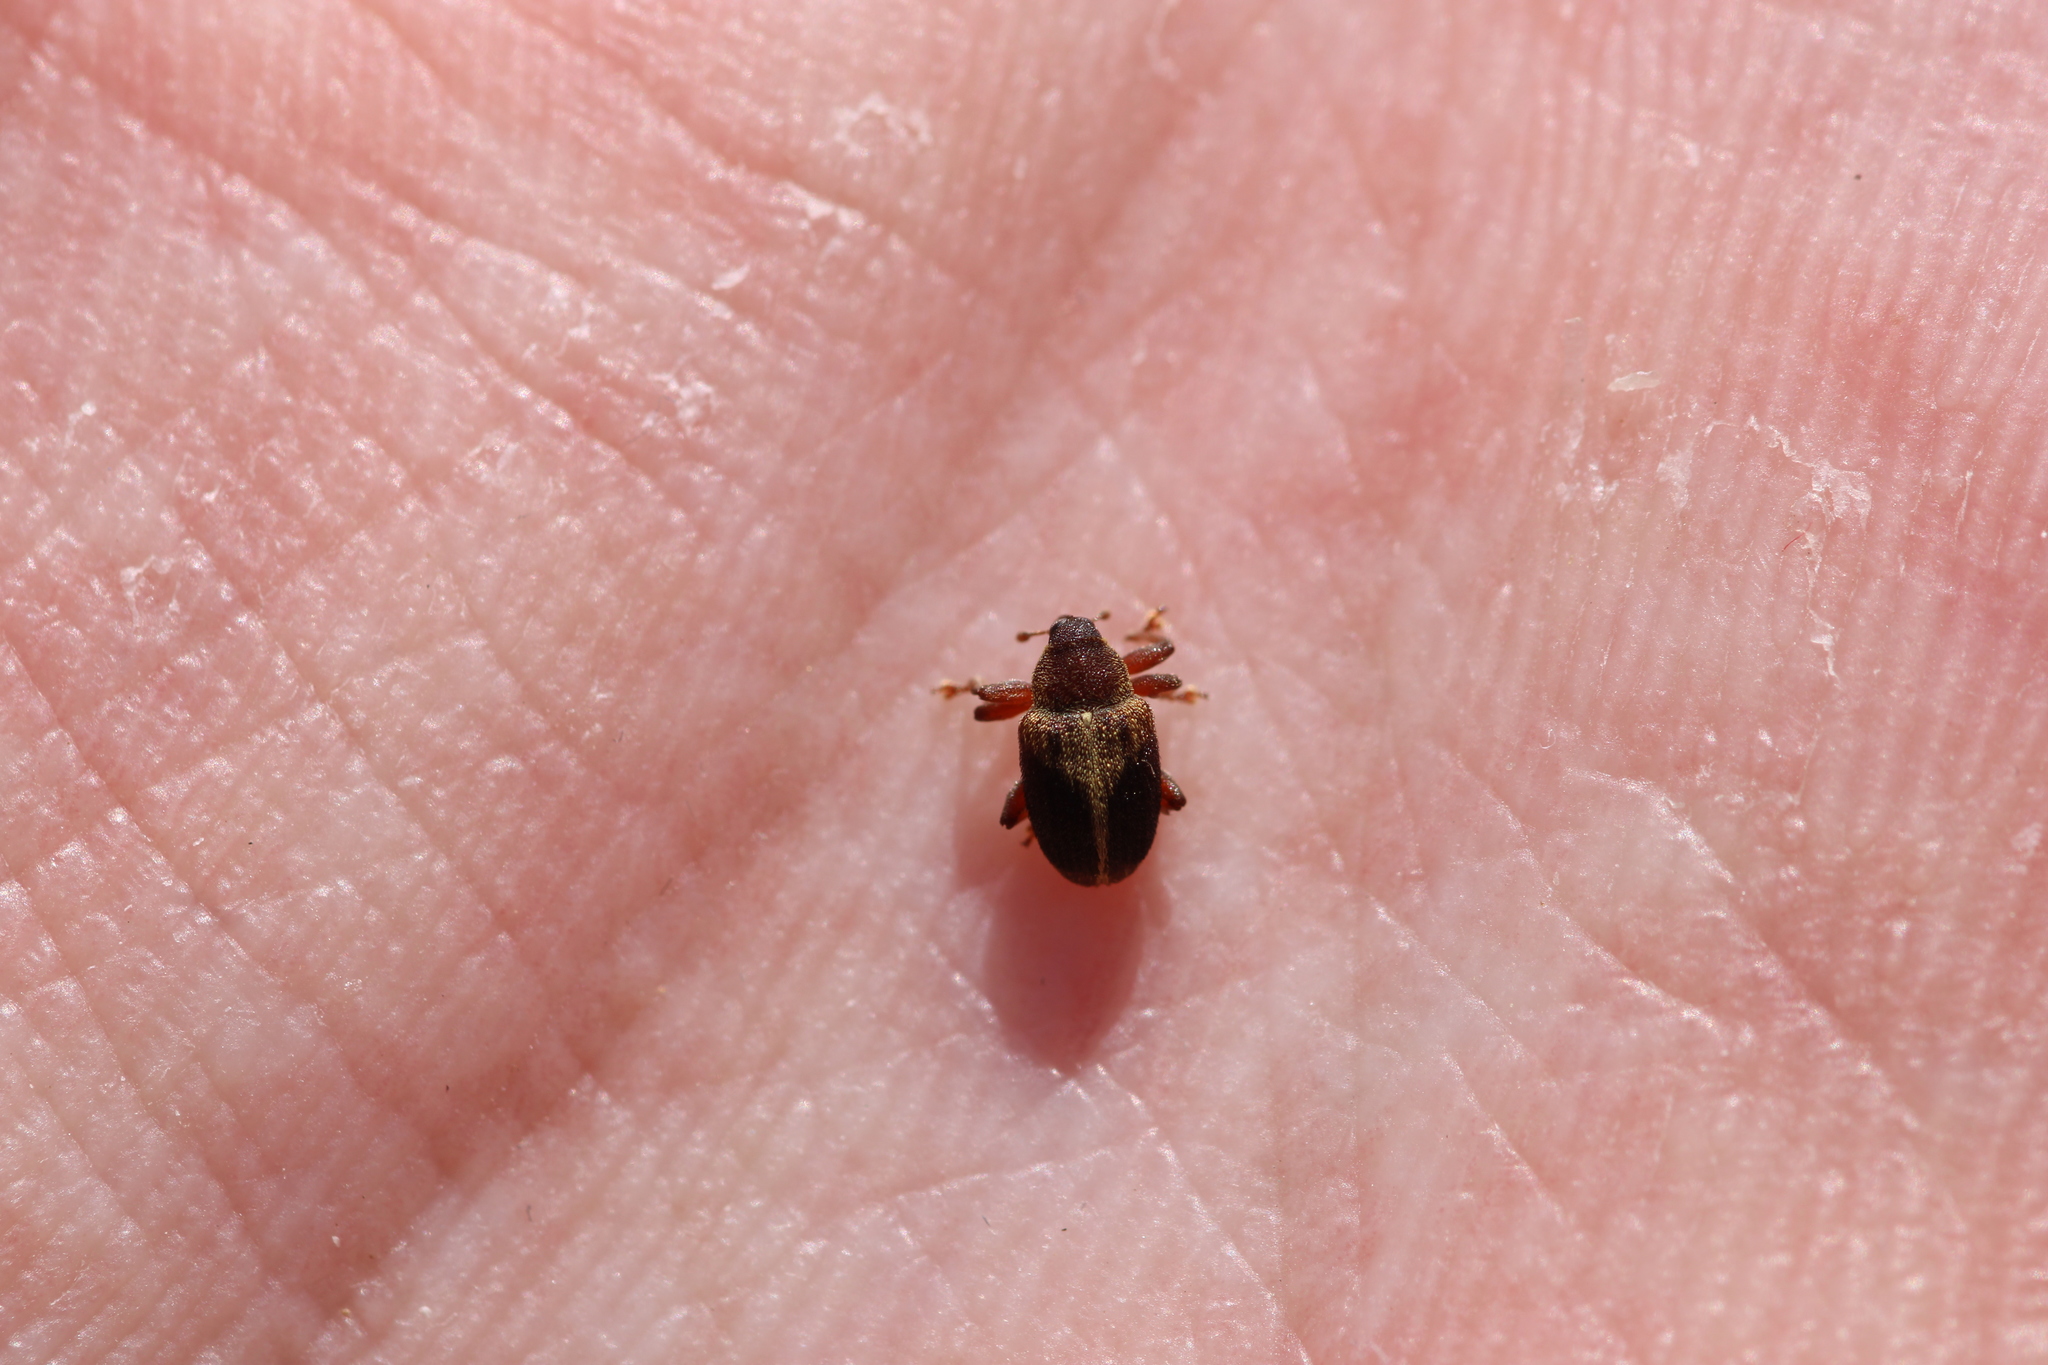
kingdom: Animalia
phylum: Arthropoda
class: Insecta
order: Coleoptera
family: Curculionidae
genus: Lignyodes
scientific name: Lignyodes enucleator
